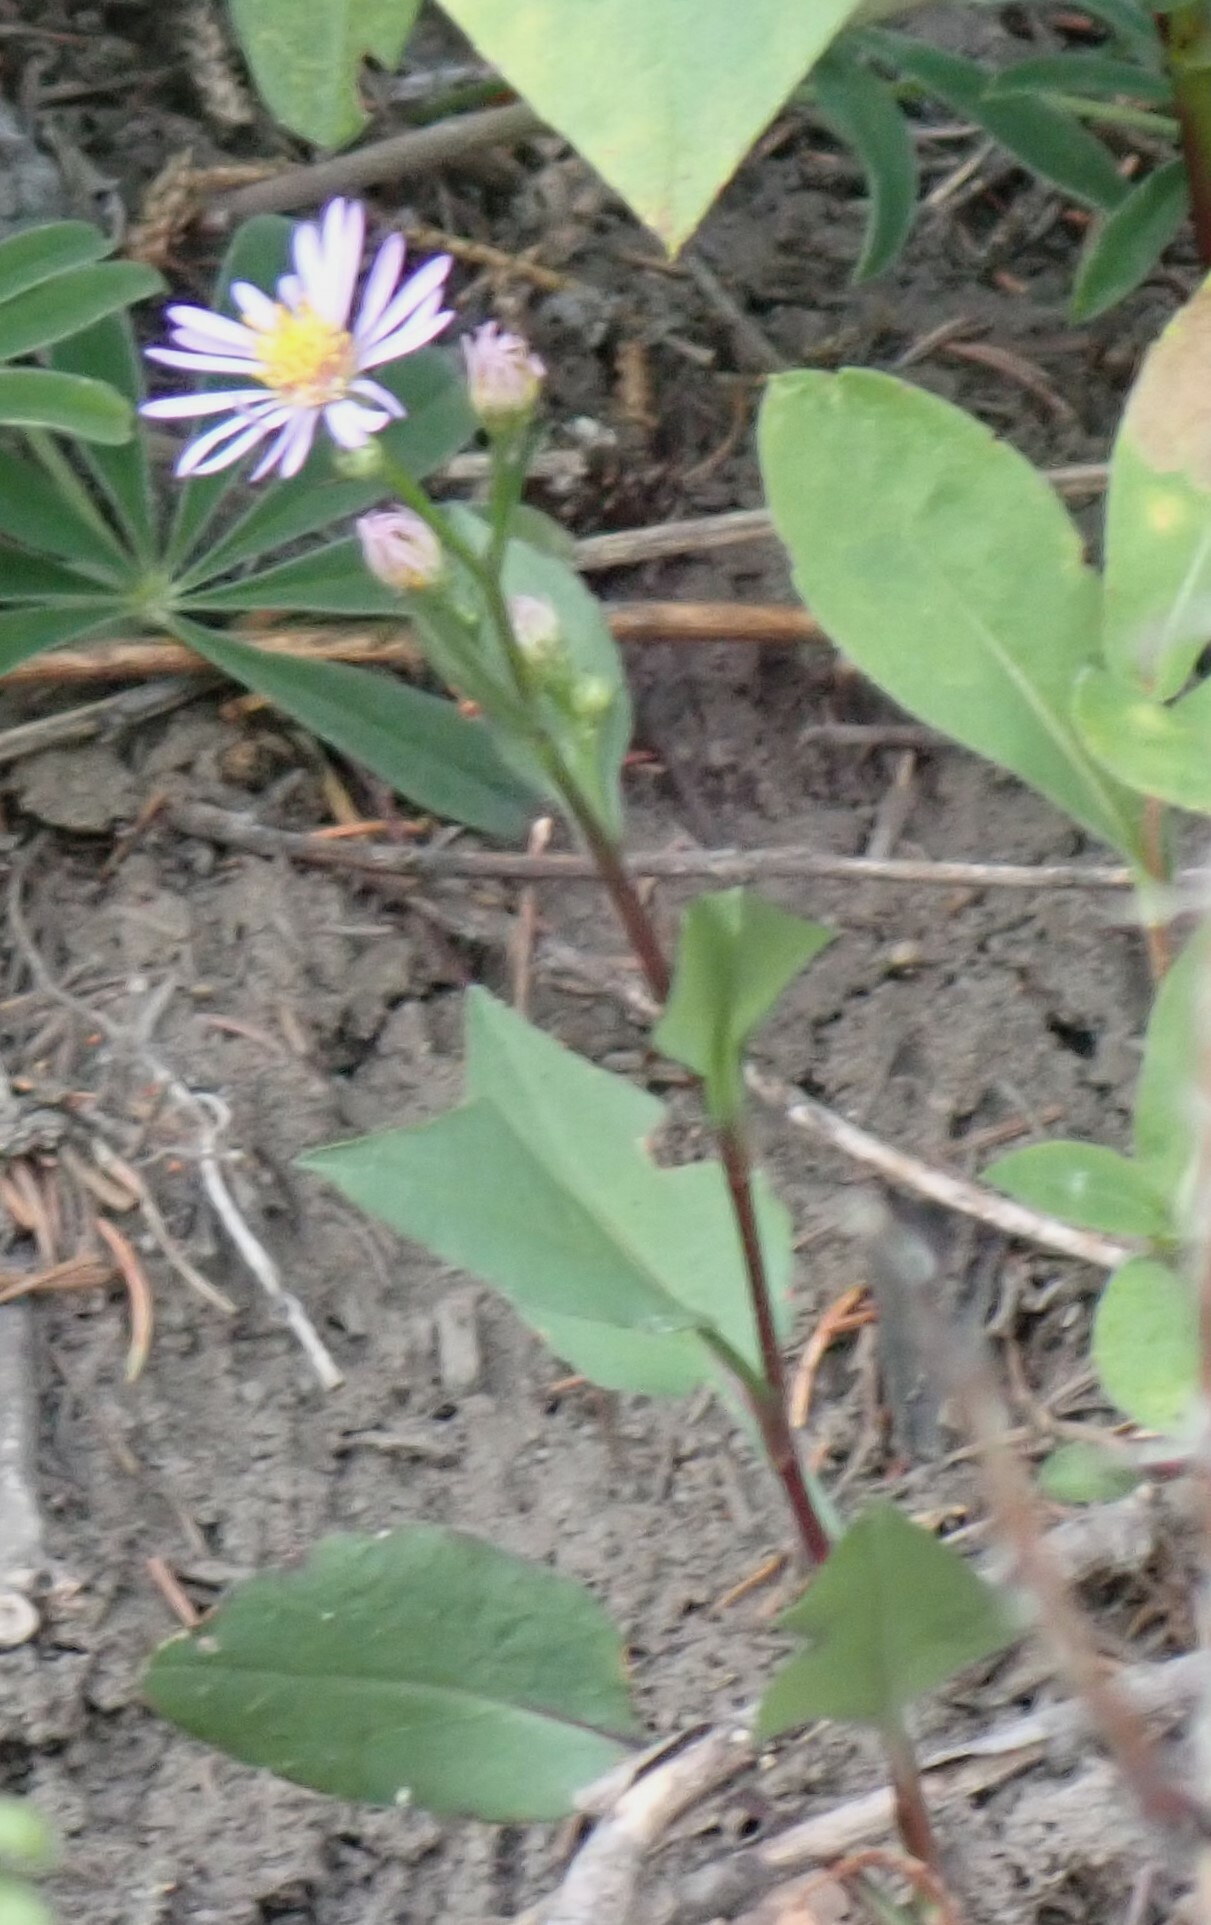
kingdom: Plantae
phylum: Tracheophyta
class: Magnoliopsida
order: Asterales
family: Asteraceae
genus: Symphyotrichum
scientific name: Symphyotrichum ciliolatum
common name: Fringed blue aster
